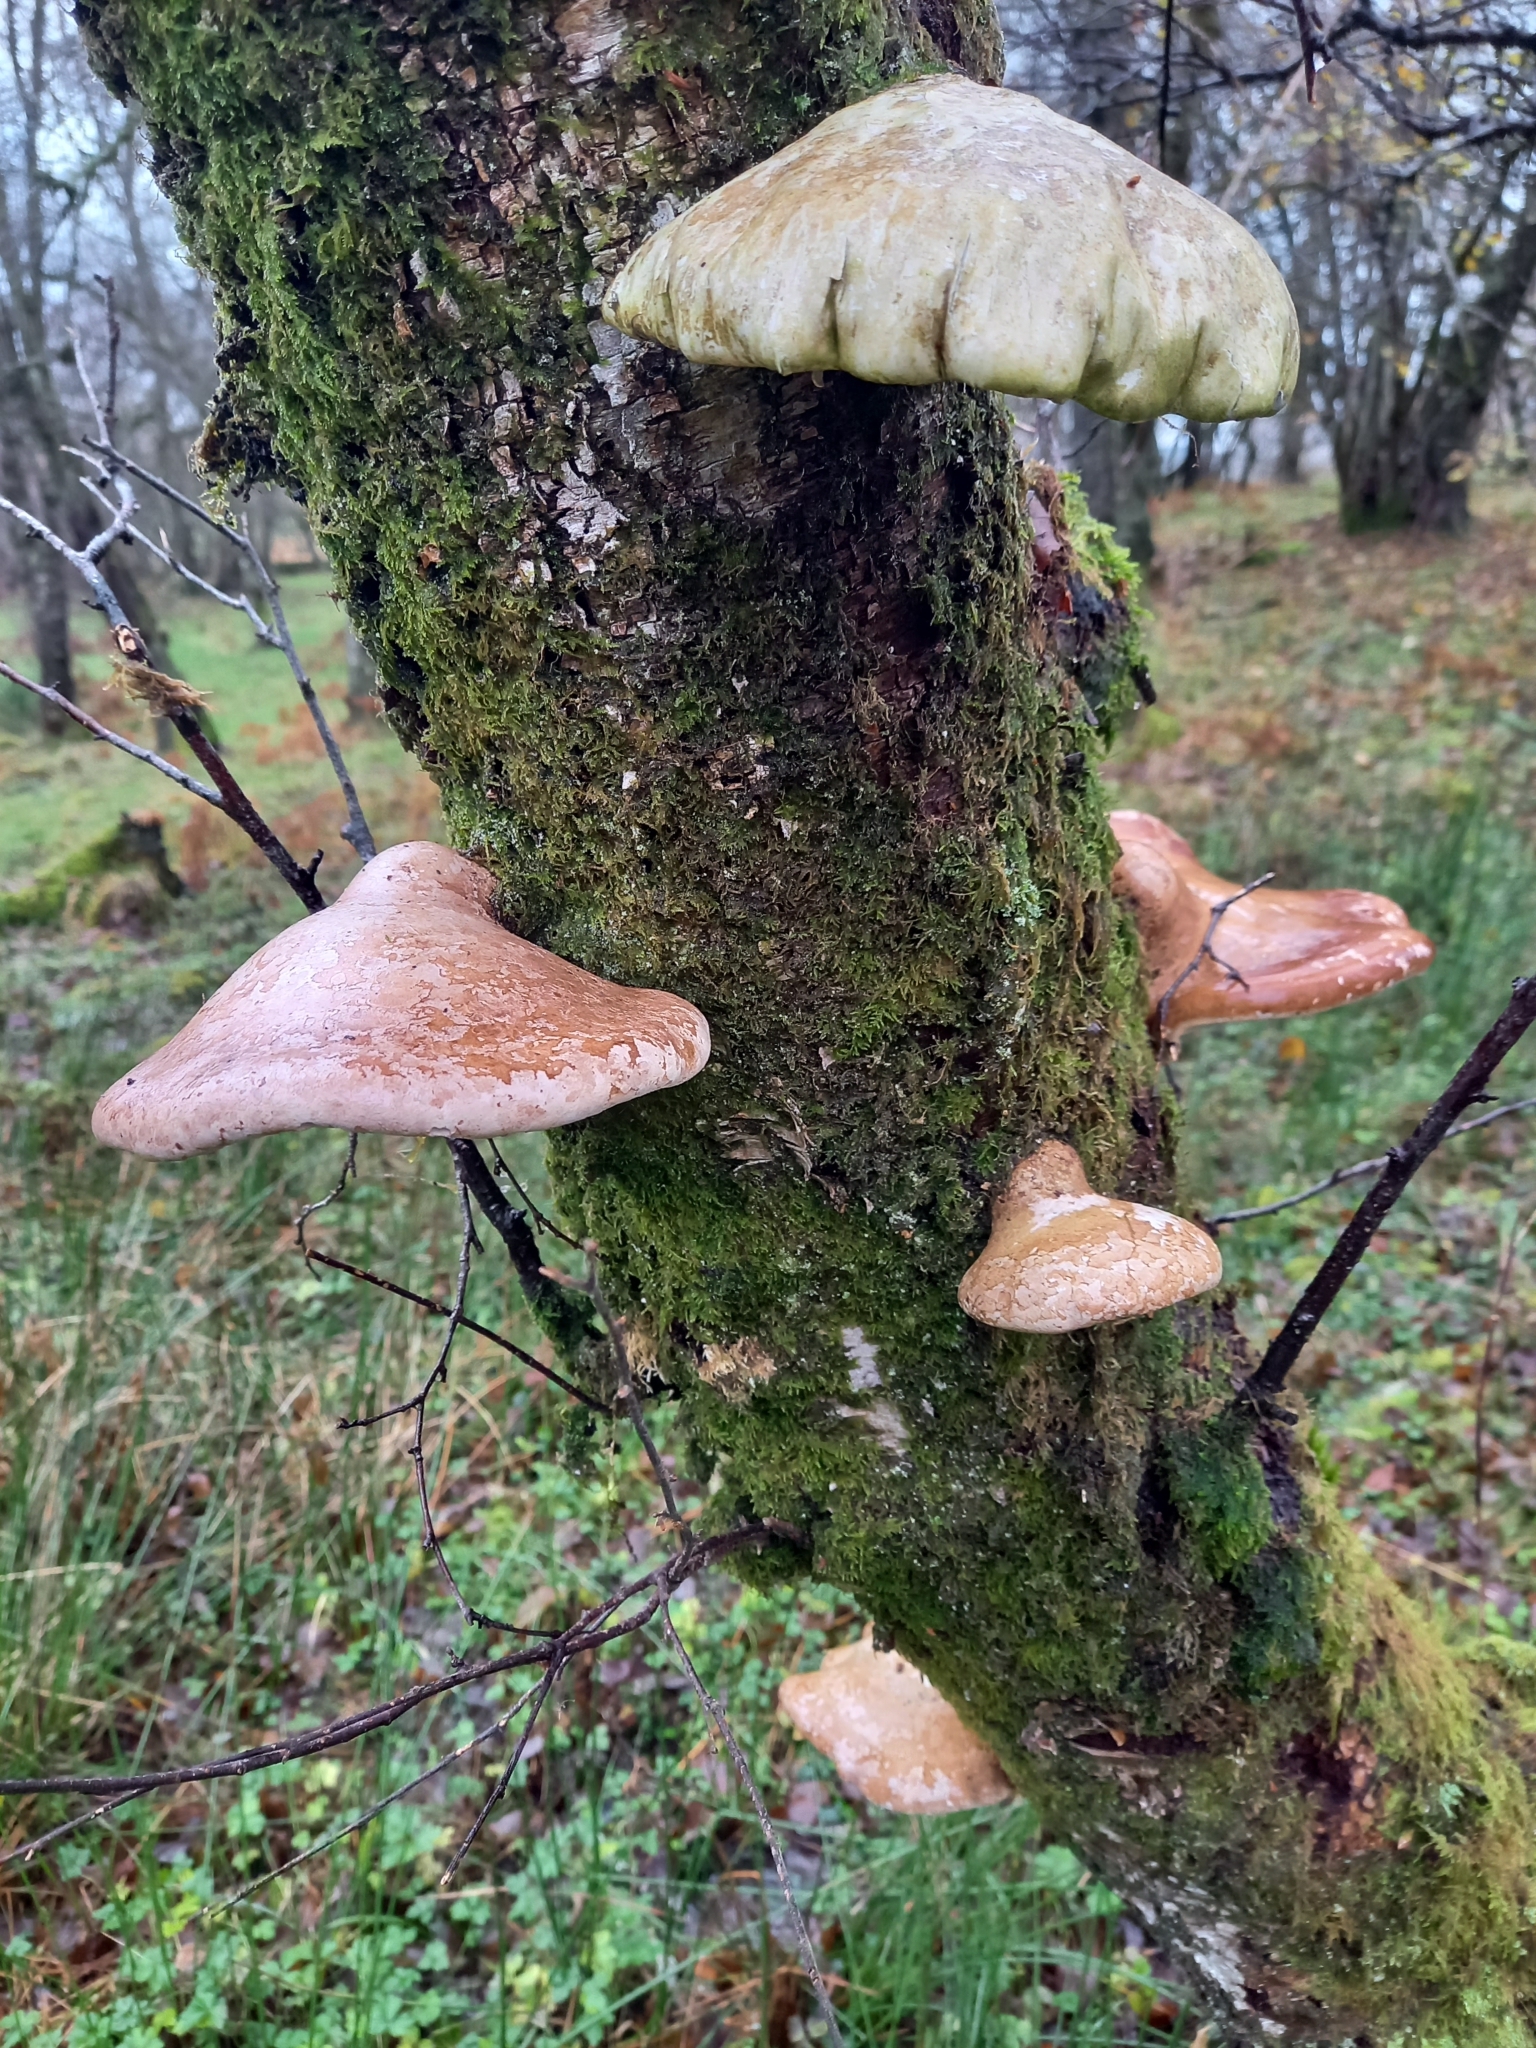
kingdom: Fungi
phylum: Basidiomycota
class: Agaricomycetes
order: Polyporales
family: Fomitopsidaceae
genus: Fomitopsis
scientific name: Fomitopsis betulina
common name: Birch polypore
